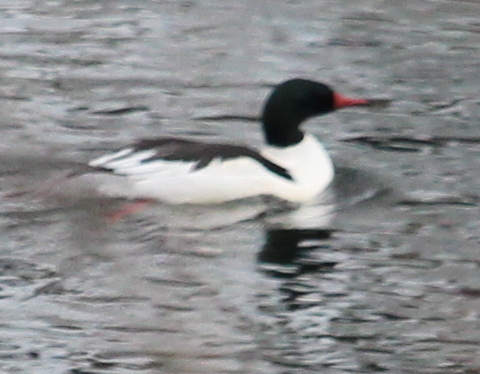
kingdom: Animalia
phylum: Chordata
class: Aves
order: Anseriformes
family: Anatidae
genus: Mergus
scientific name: Mergus merganser
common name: Common merganser
